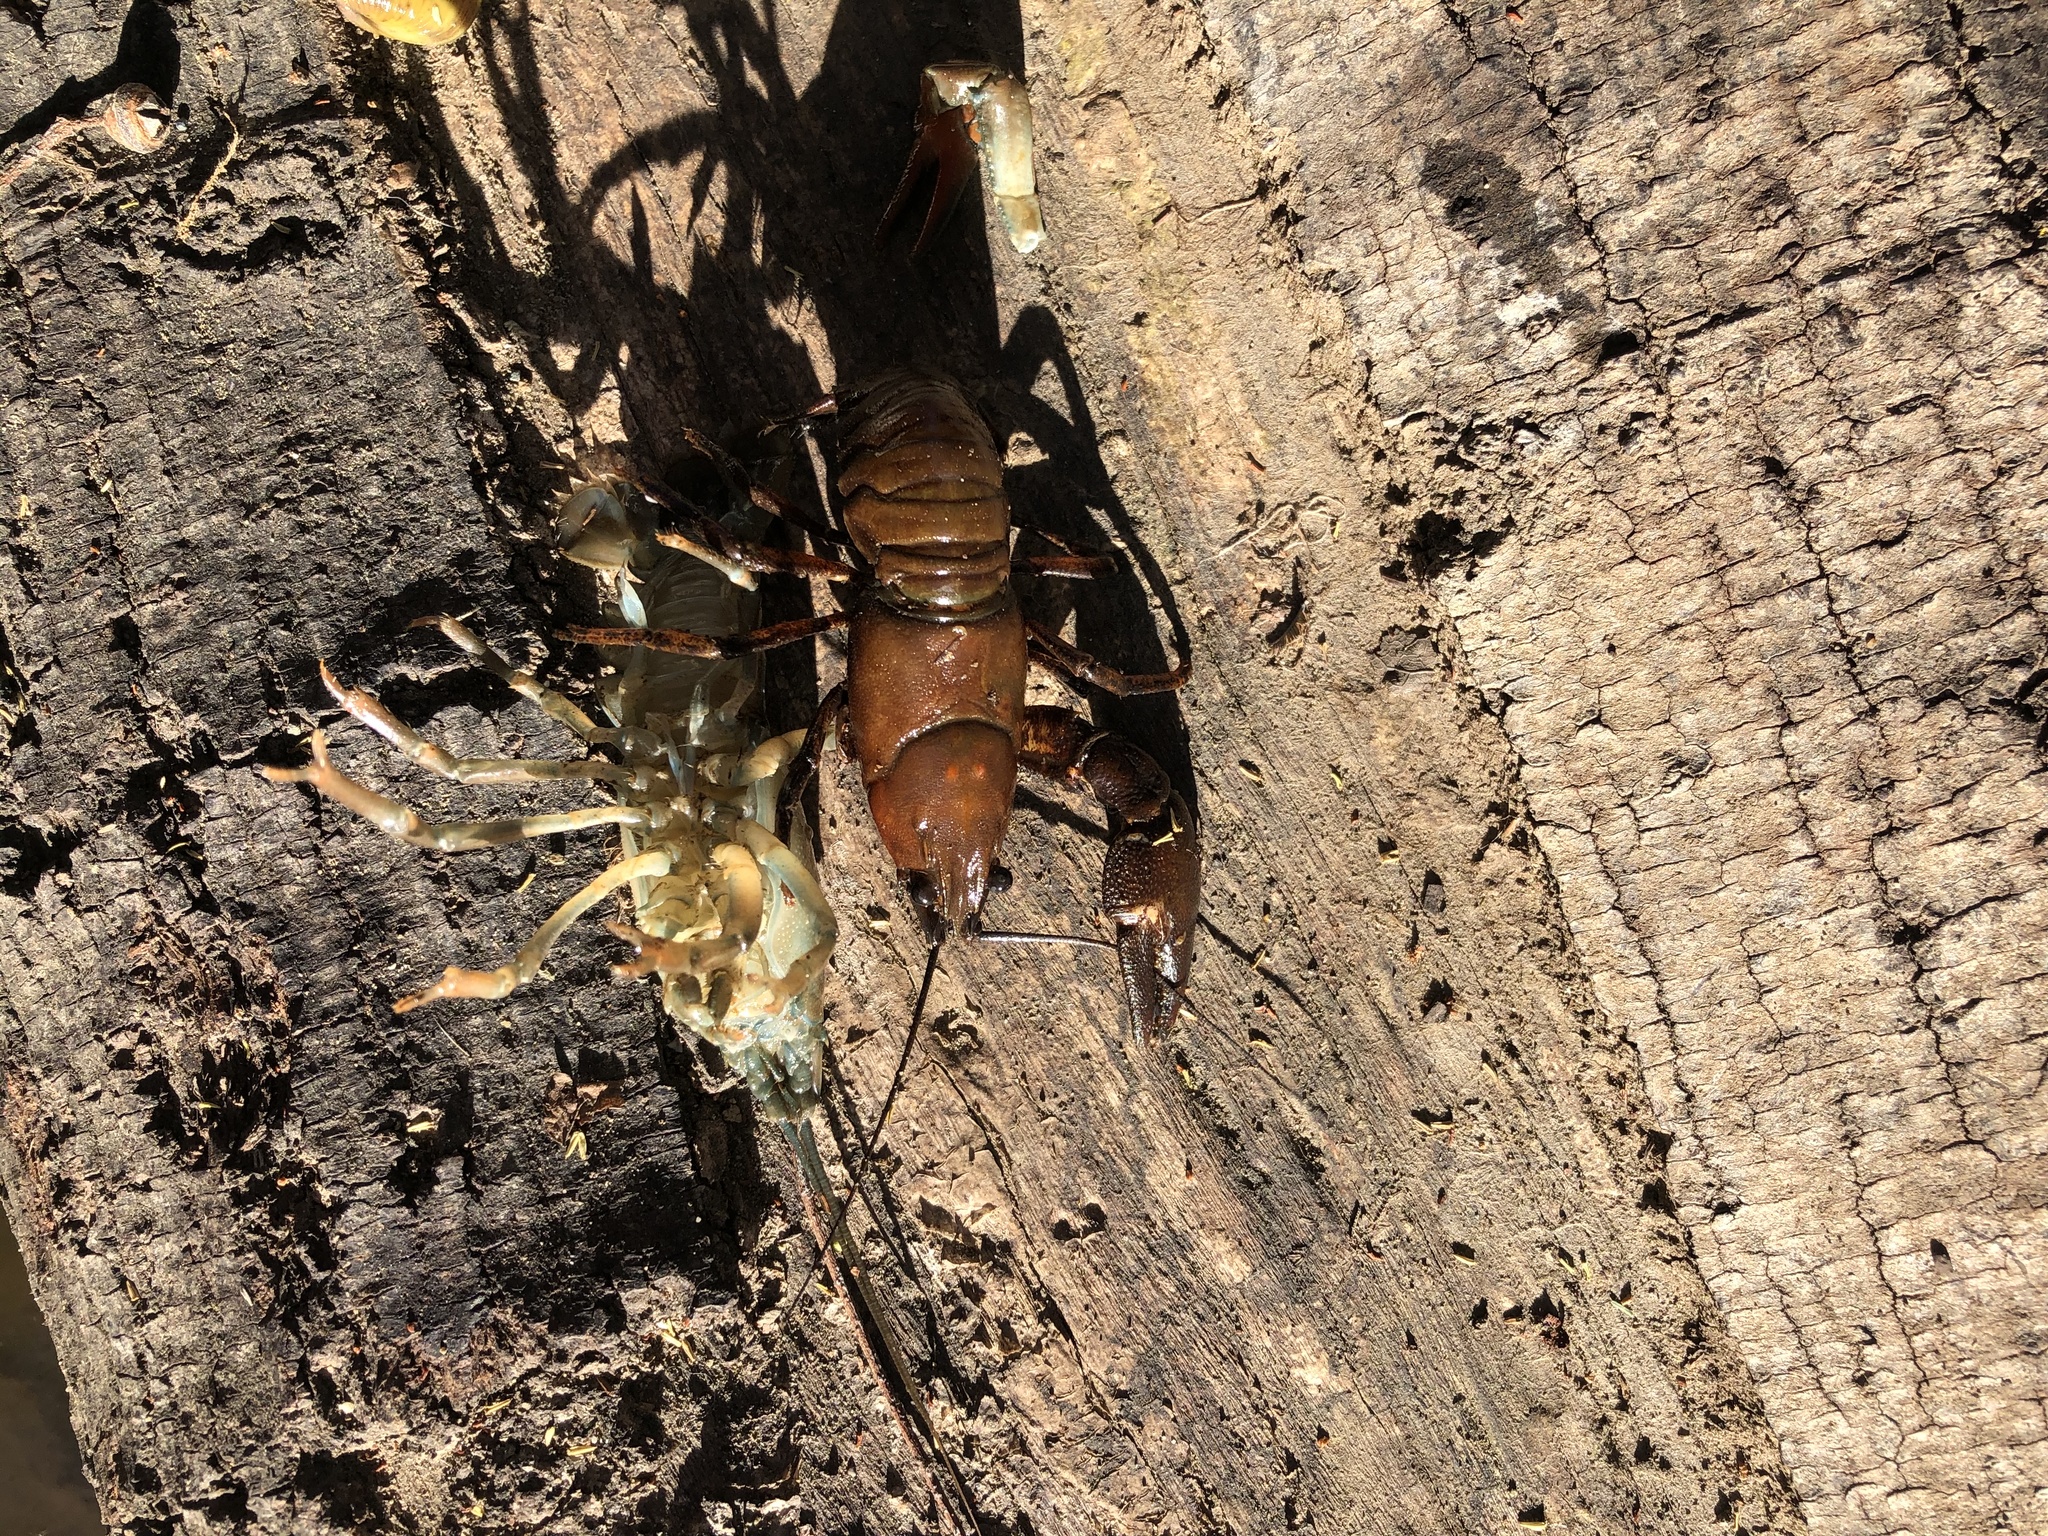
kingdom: Animalia
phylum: Arthropoda
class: Malacostraca
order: Decapoda
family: Astacidae
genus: Pacifastacus
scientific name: Pacifastacus leniusculus
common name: Signal crayfish
